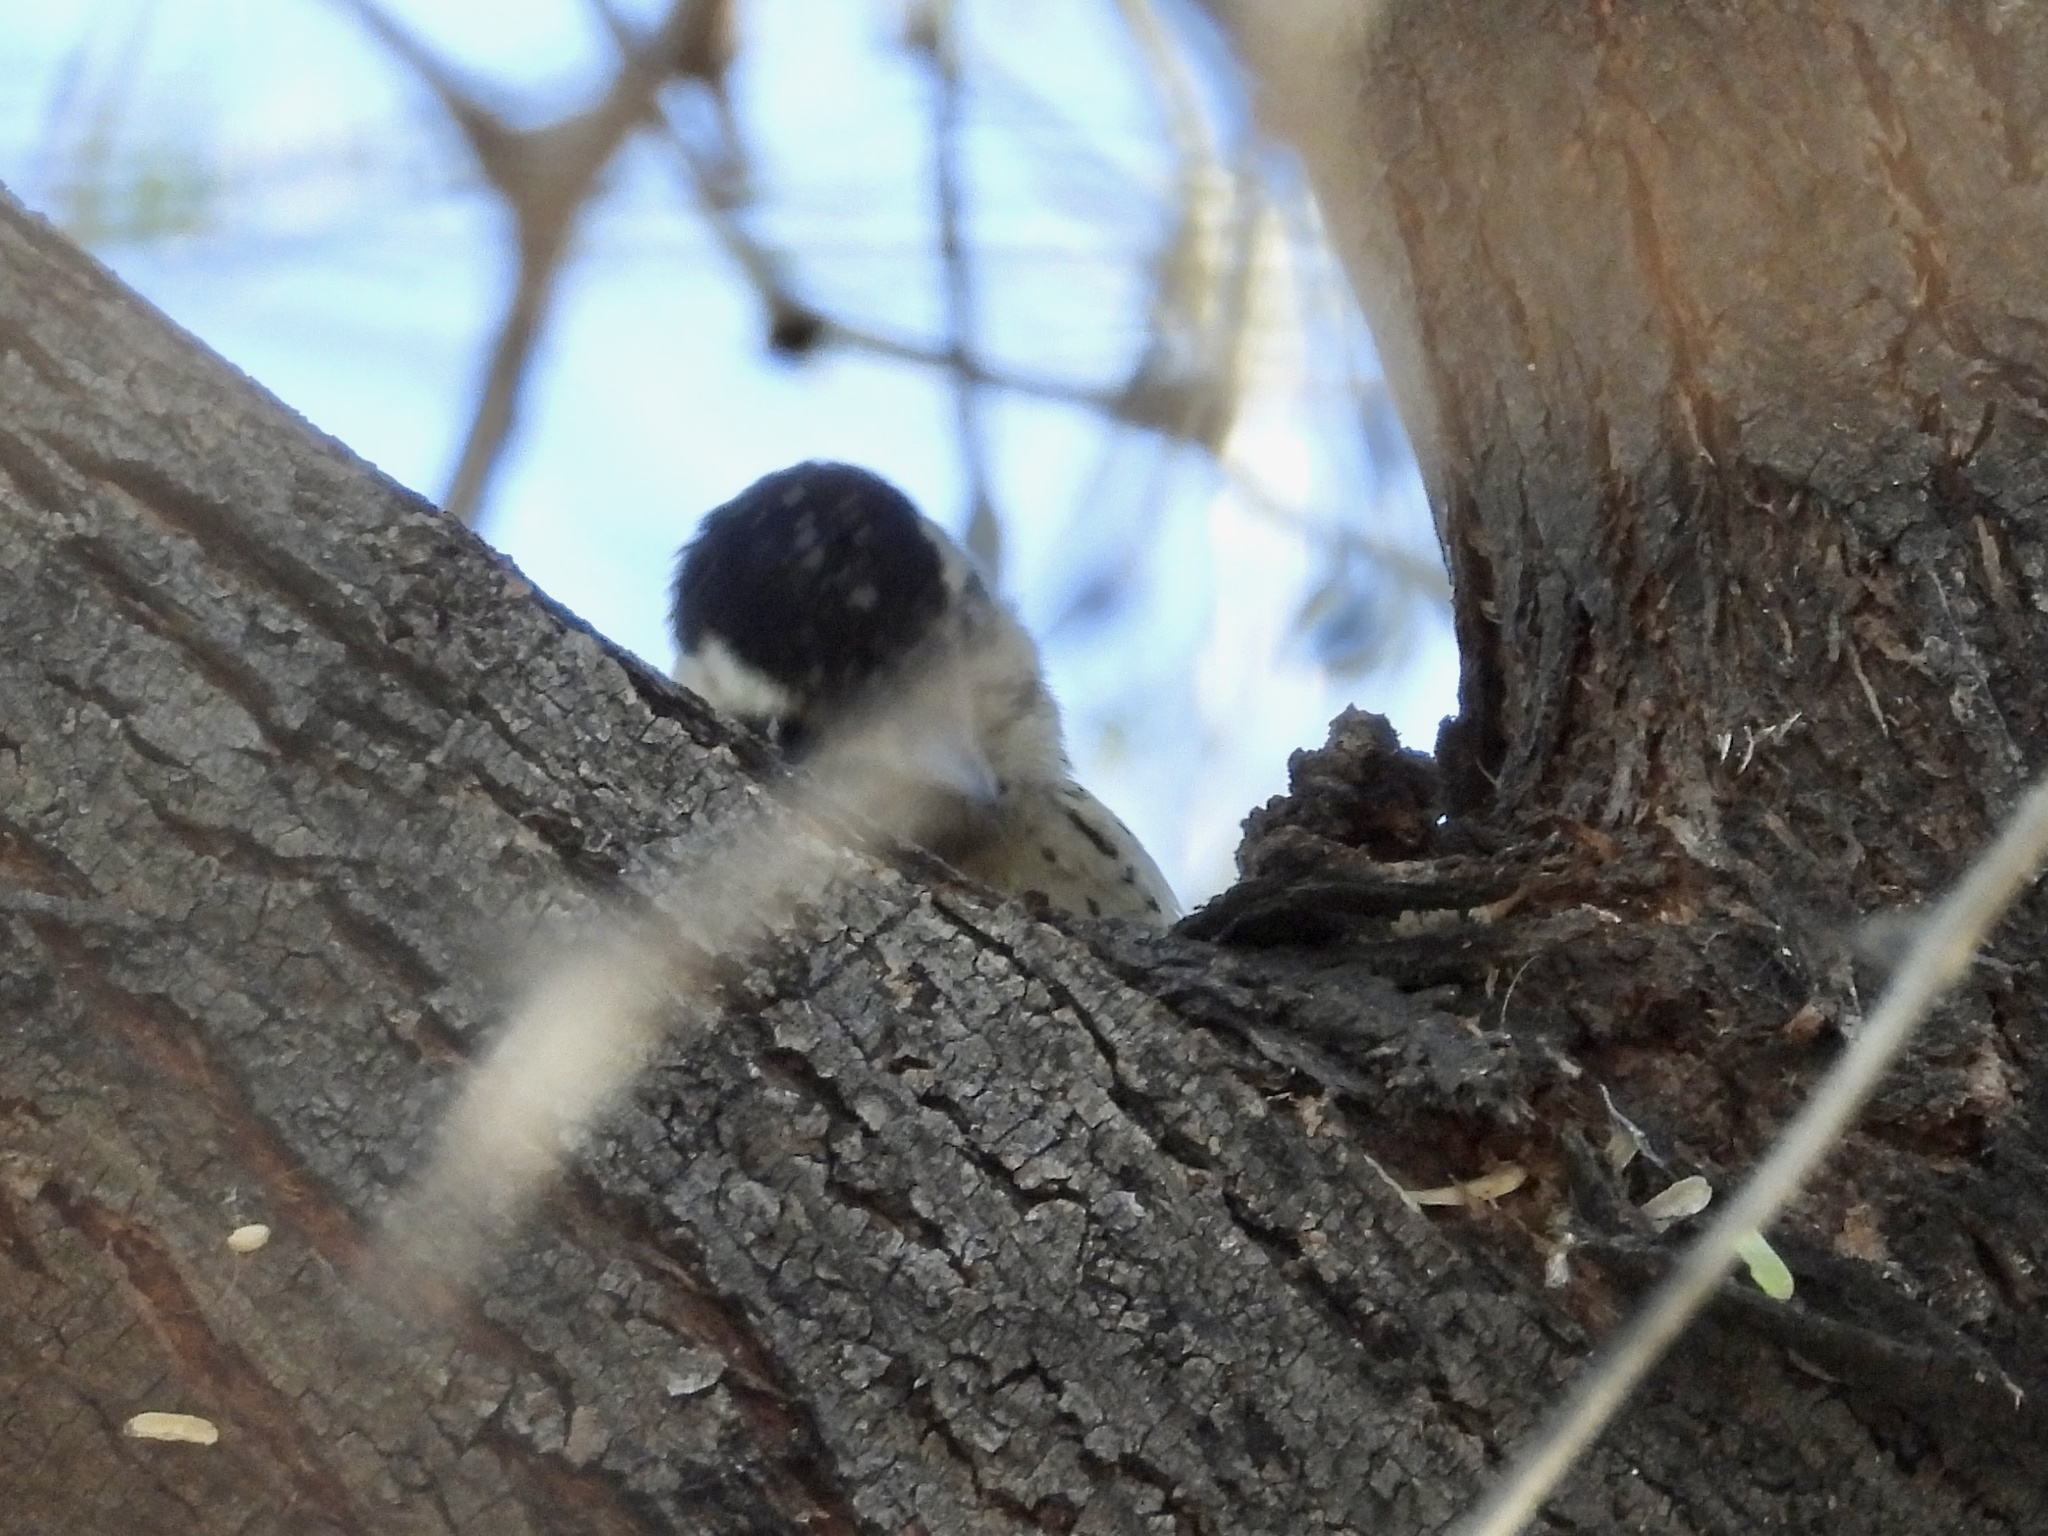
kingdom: Animalia
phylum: Chordata
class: Aves
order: Piciformes
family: Picidae
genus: Dryobates
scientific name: Dryobates scalaris
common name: Ladder-backed woodpecker
